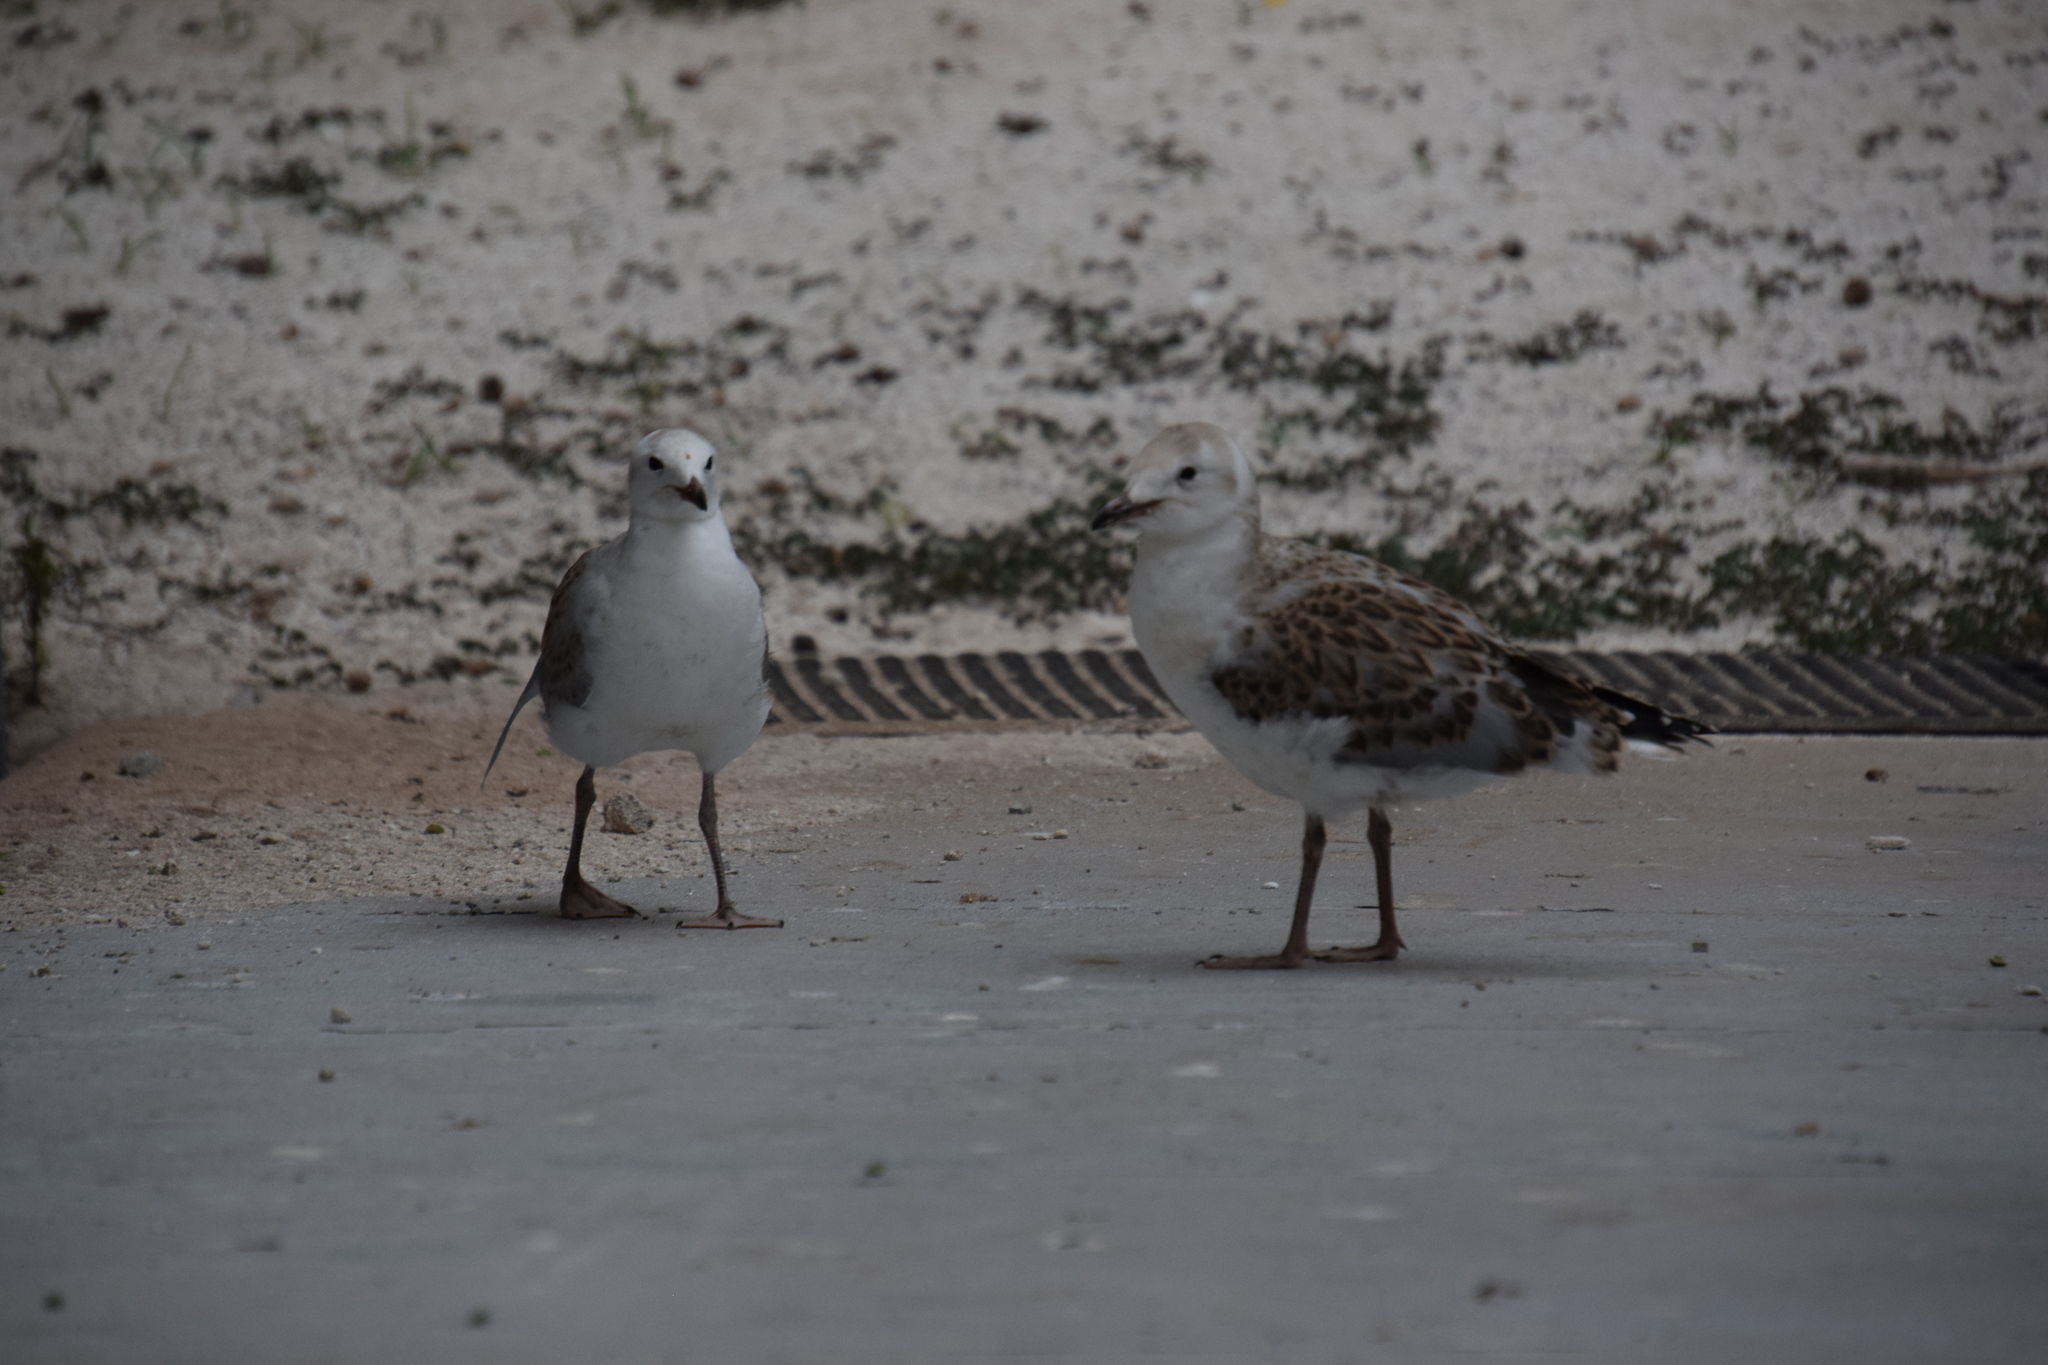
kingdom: Animalia
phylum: Chordata
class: Aves
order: Charadriiformes
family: Laridae
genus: Chroicocephalus
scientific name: Chroicocephalus novaehollandiae
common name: Silver gull
